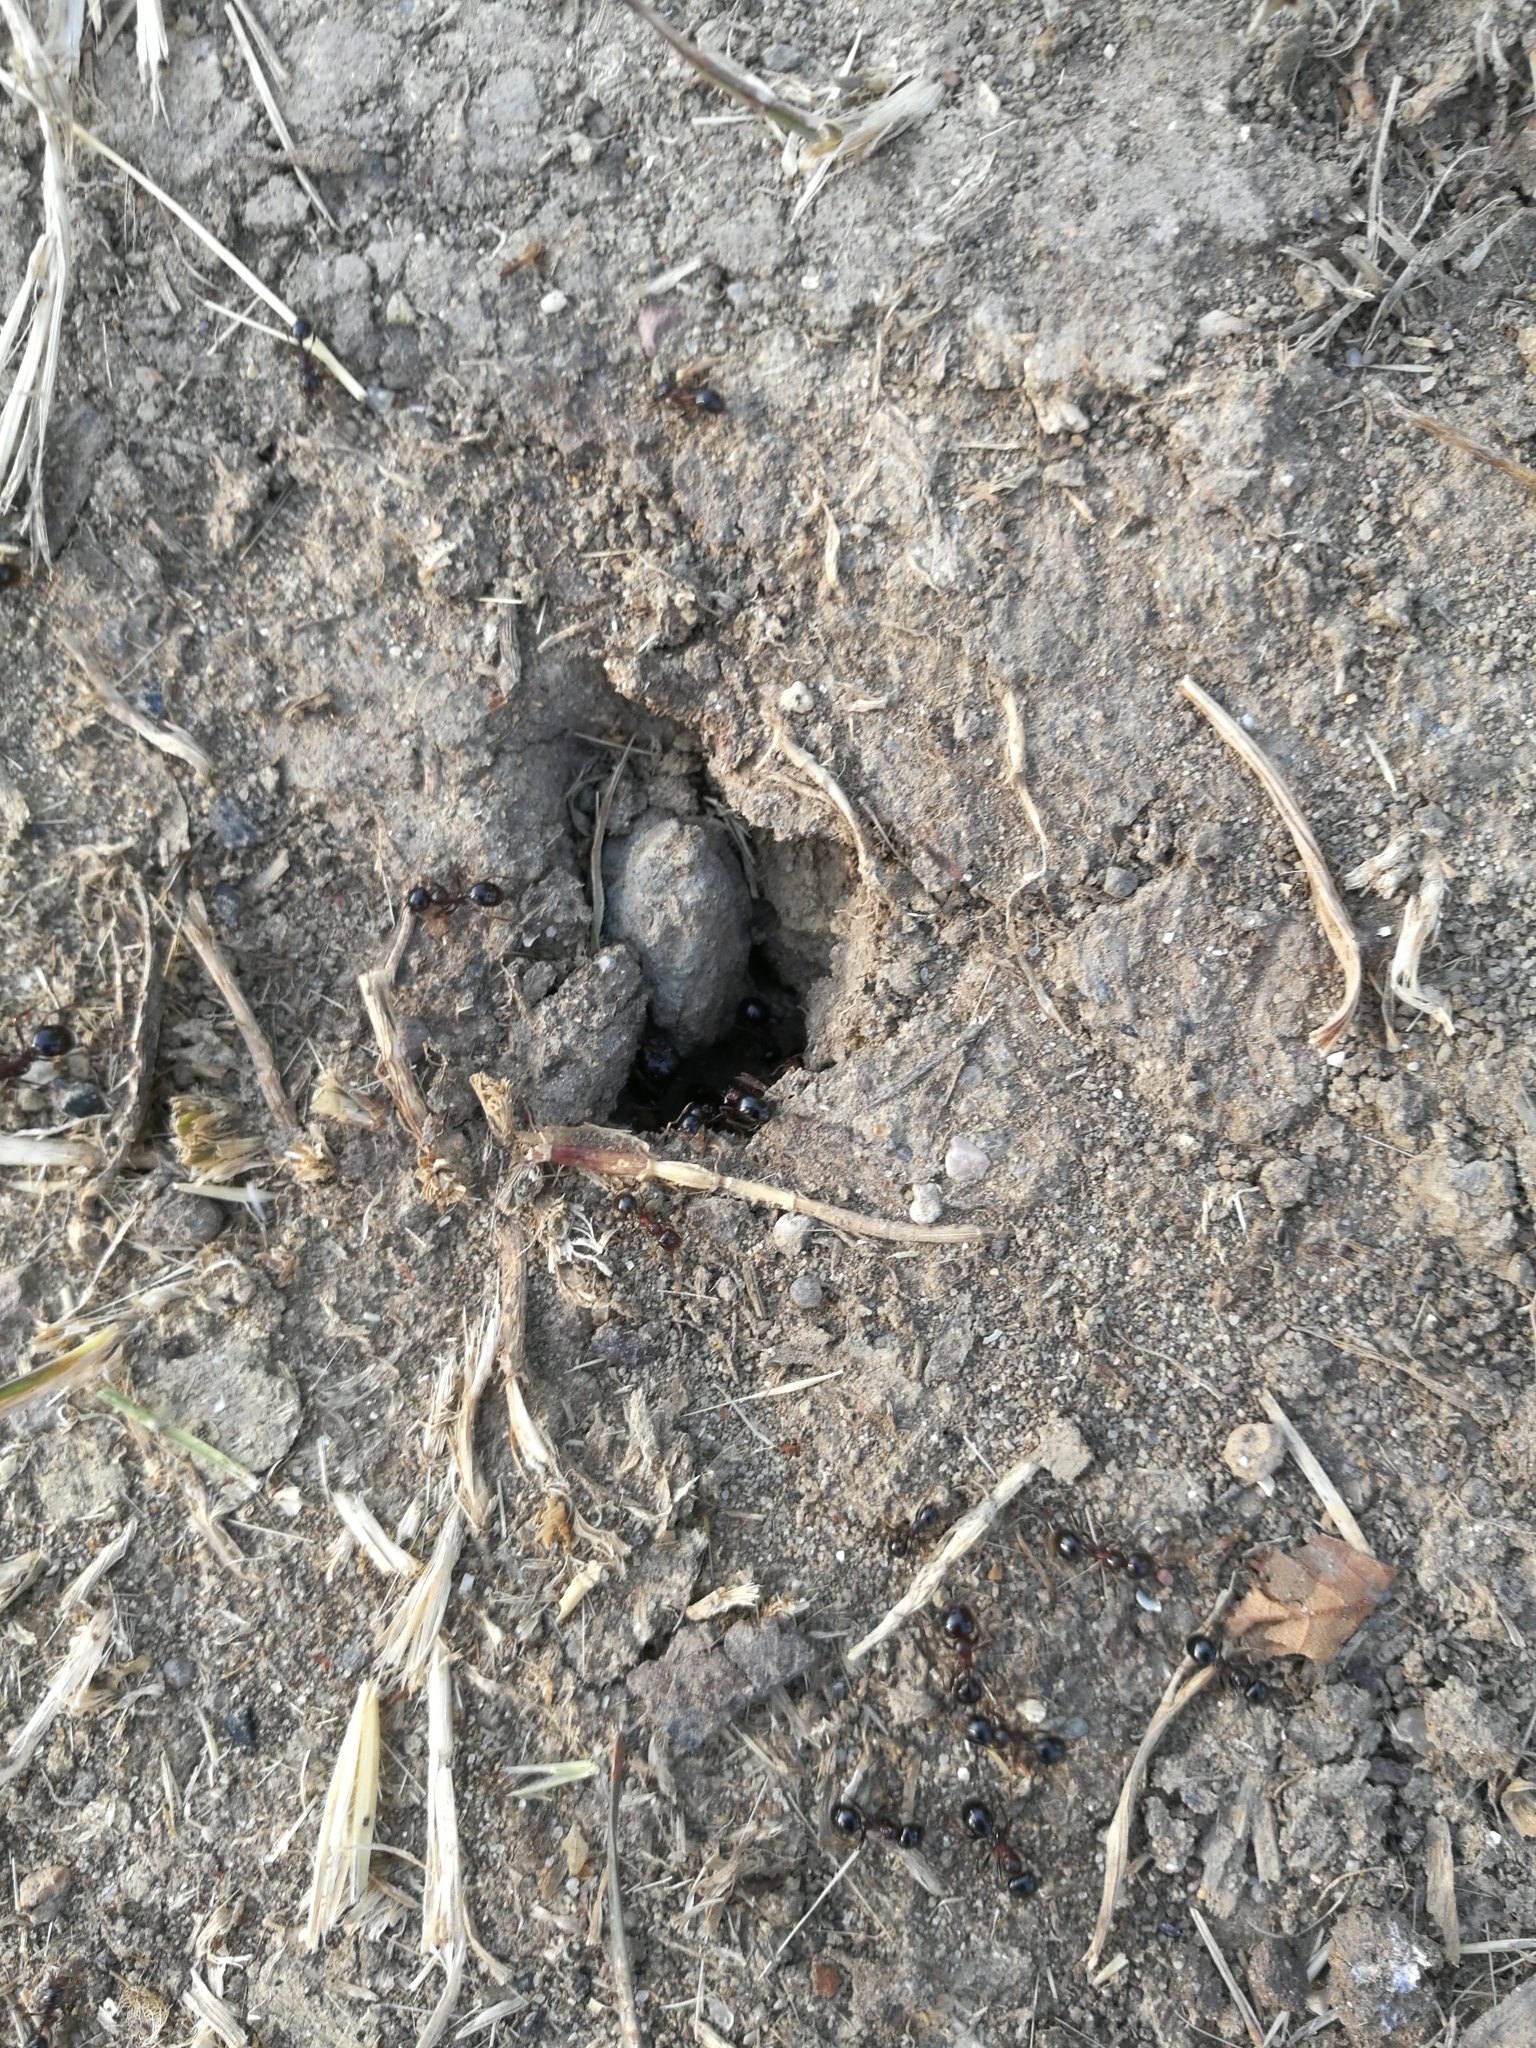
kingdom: Animalia
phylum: Arthropoda
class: Insecta
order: Hymenoptera
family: Formicidae
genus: Messor
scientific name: Messor wasmanni
